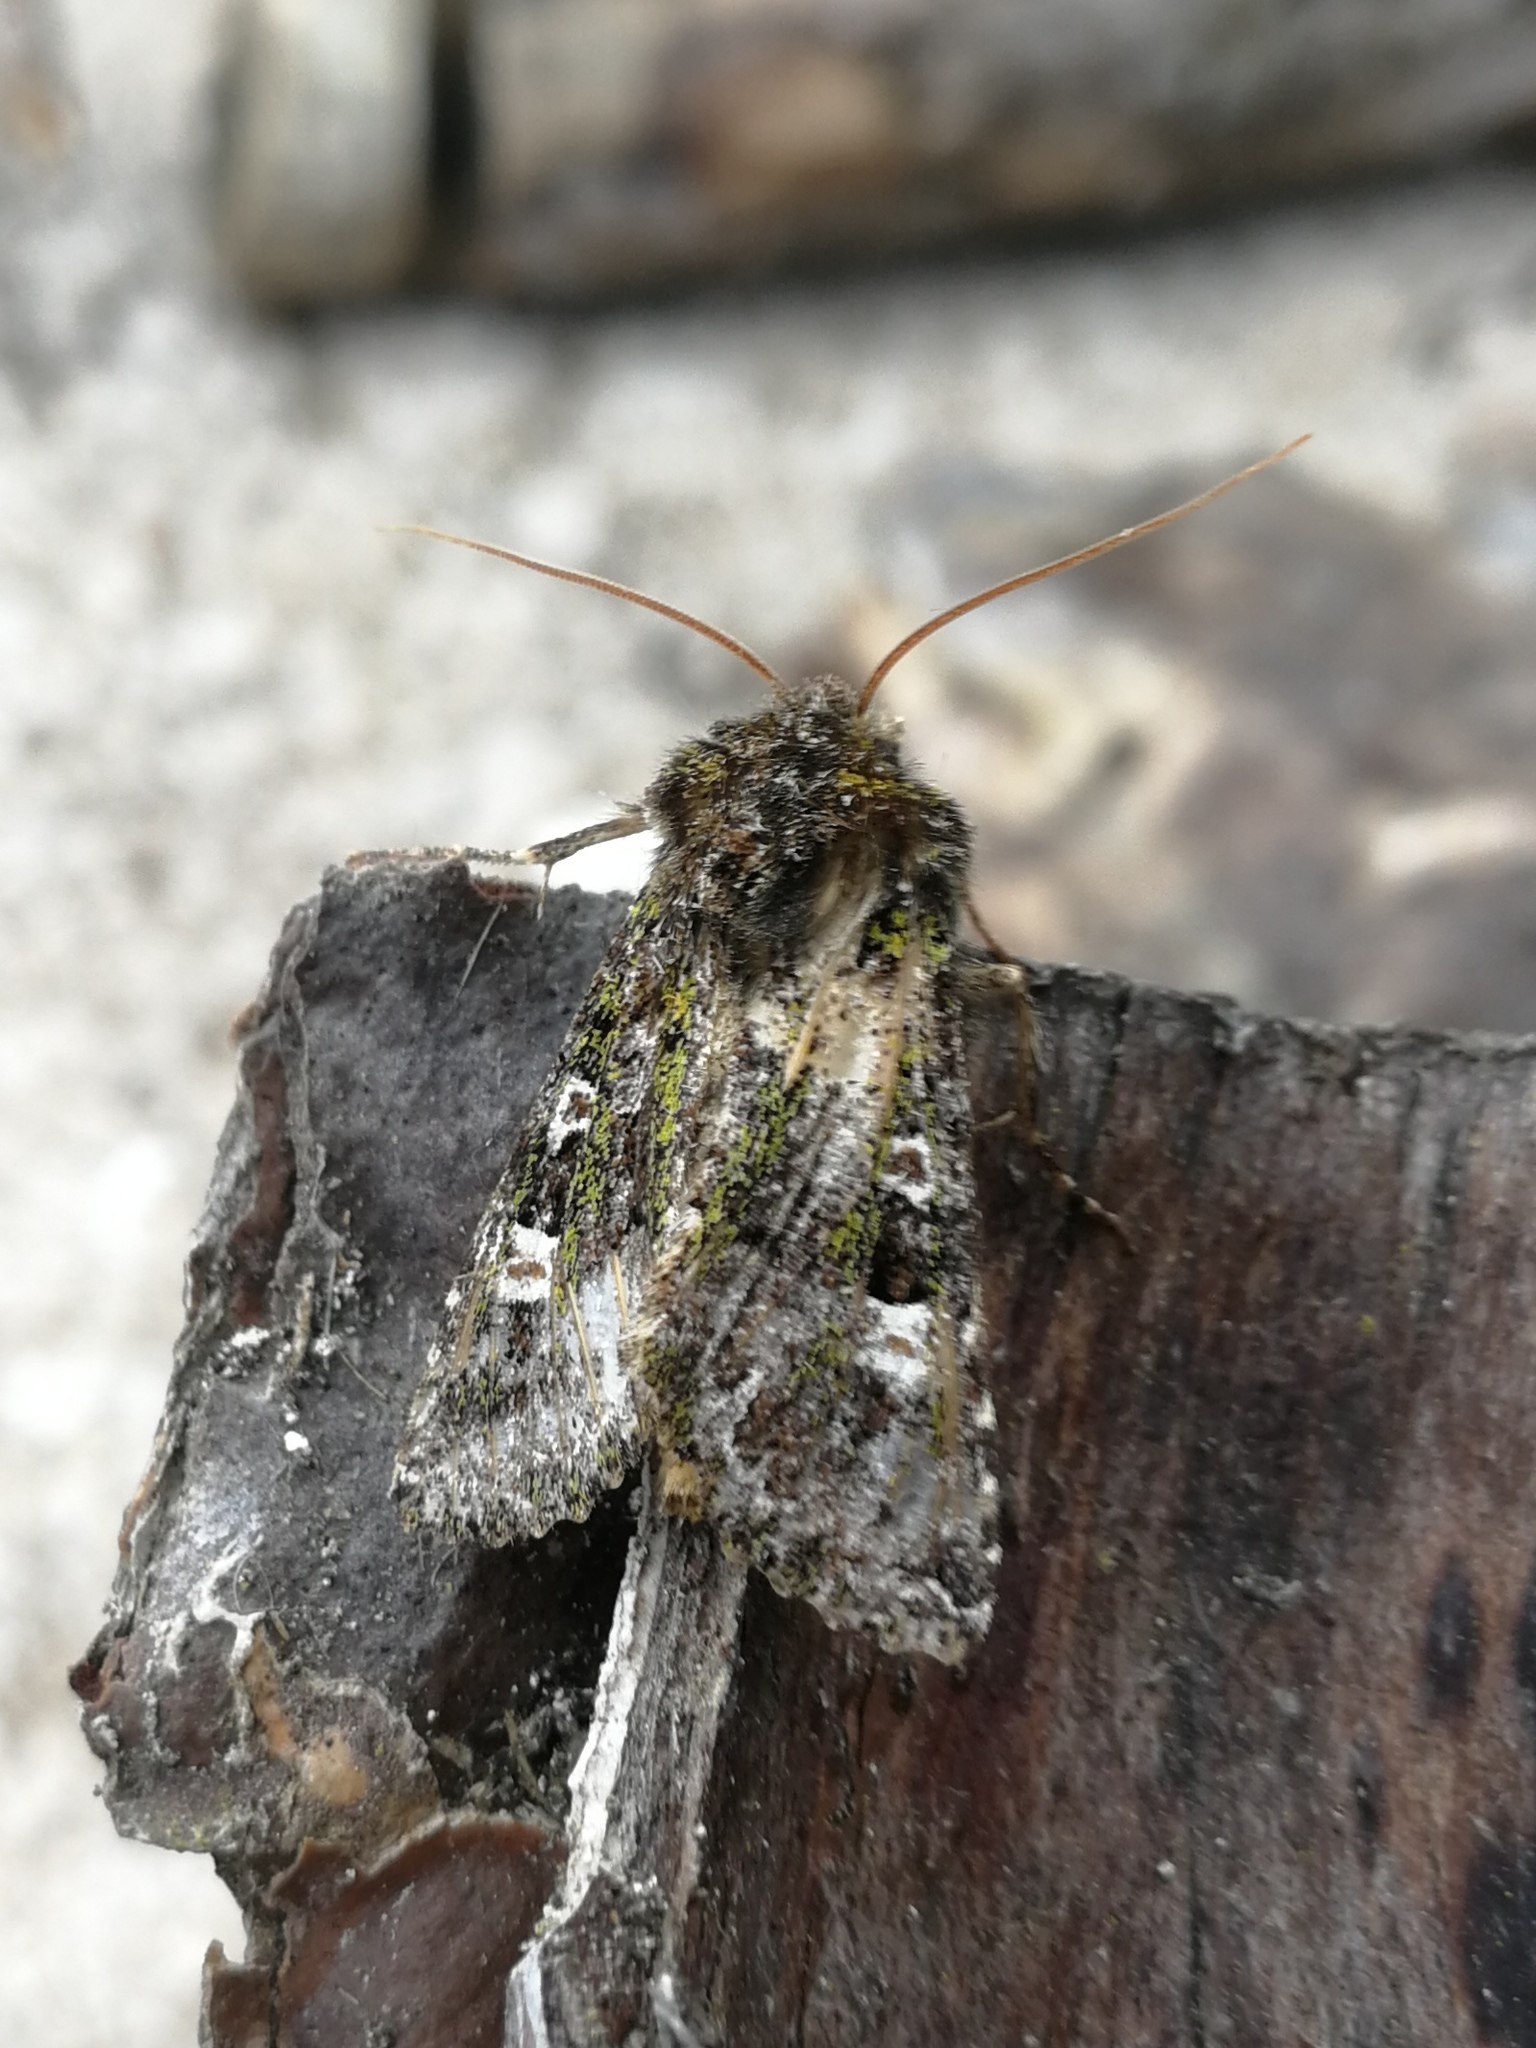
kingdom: Animalia
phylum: Arthropoda
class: Insecta
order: Lepidoptera
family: Noctuidae
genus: Valeria
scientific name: Valeria jaspidea
